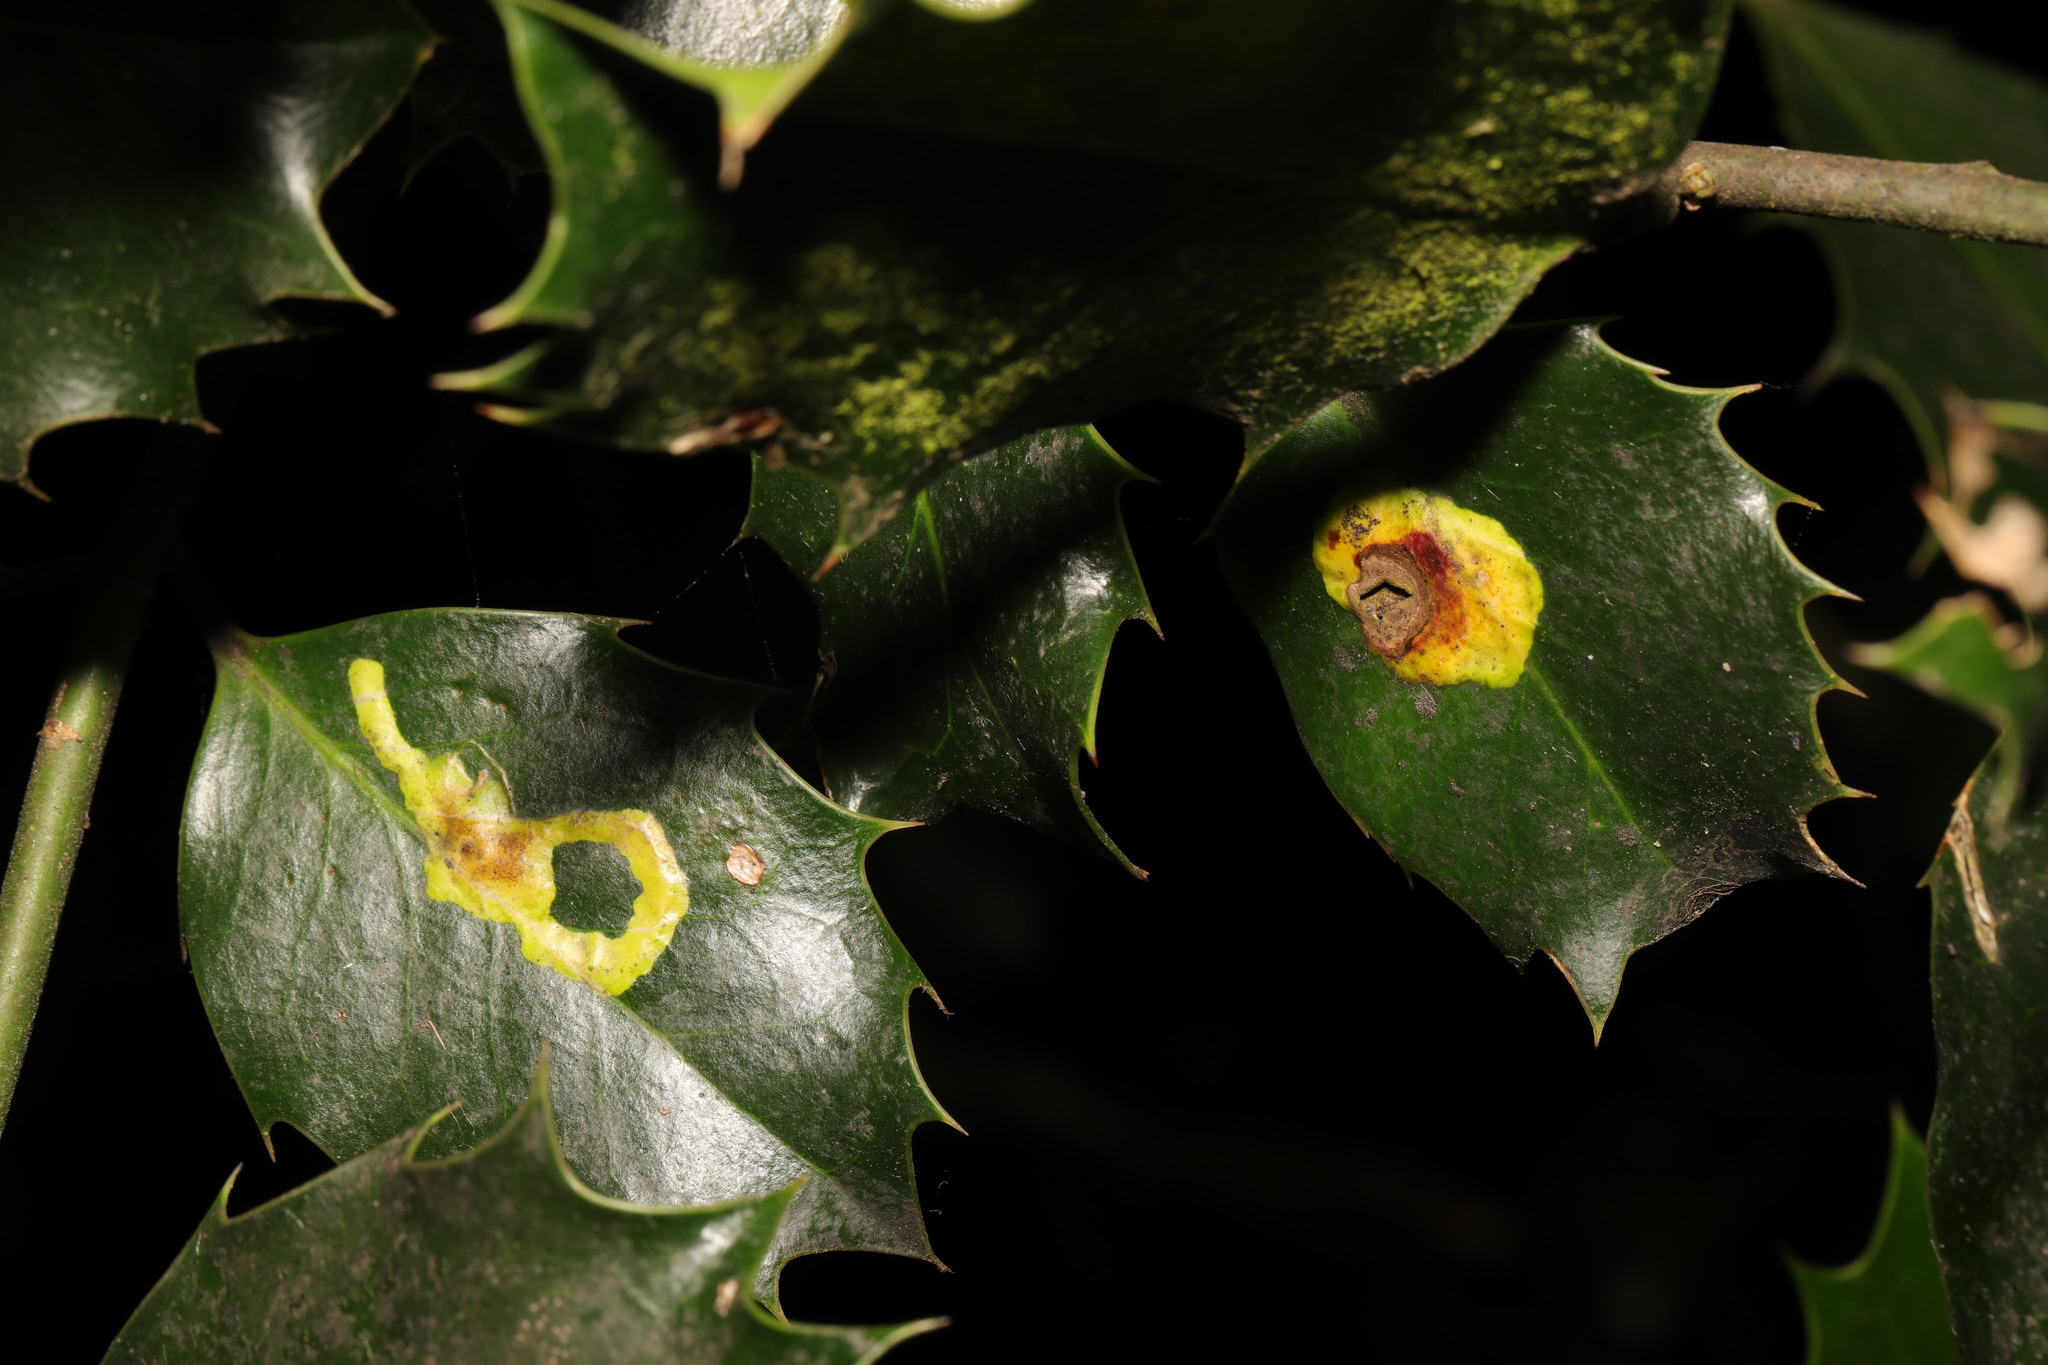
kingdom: Animalia
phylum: Arthropoda
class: Insecta
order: Diptera
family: Agromyzidae
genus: Phytomyza
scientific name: Phytomyza ilicis
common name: Holly leafminer
